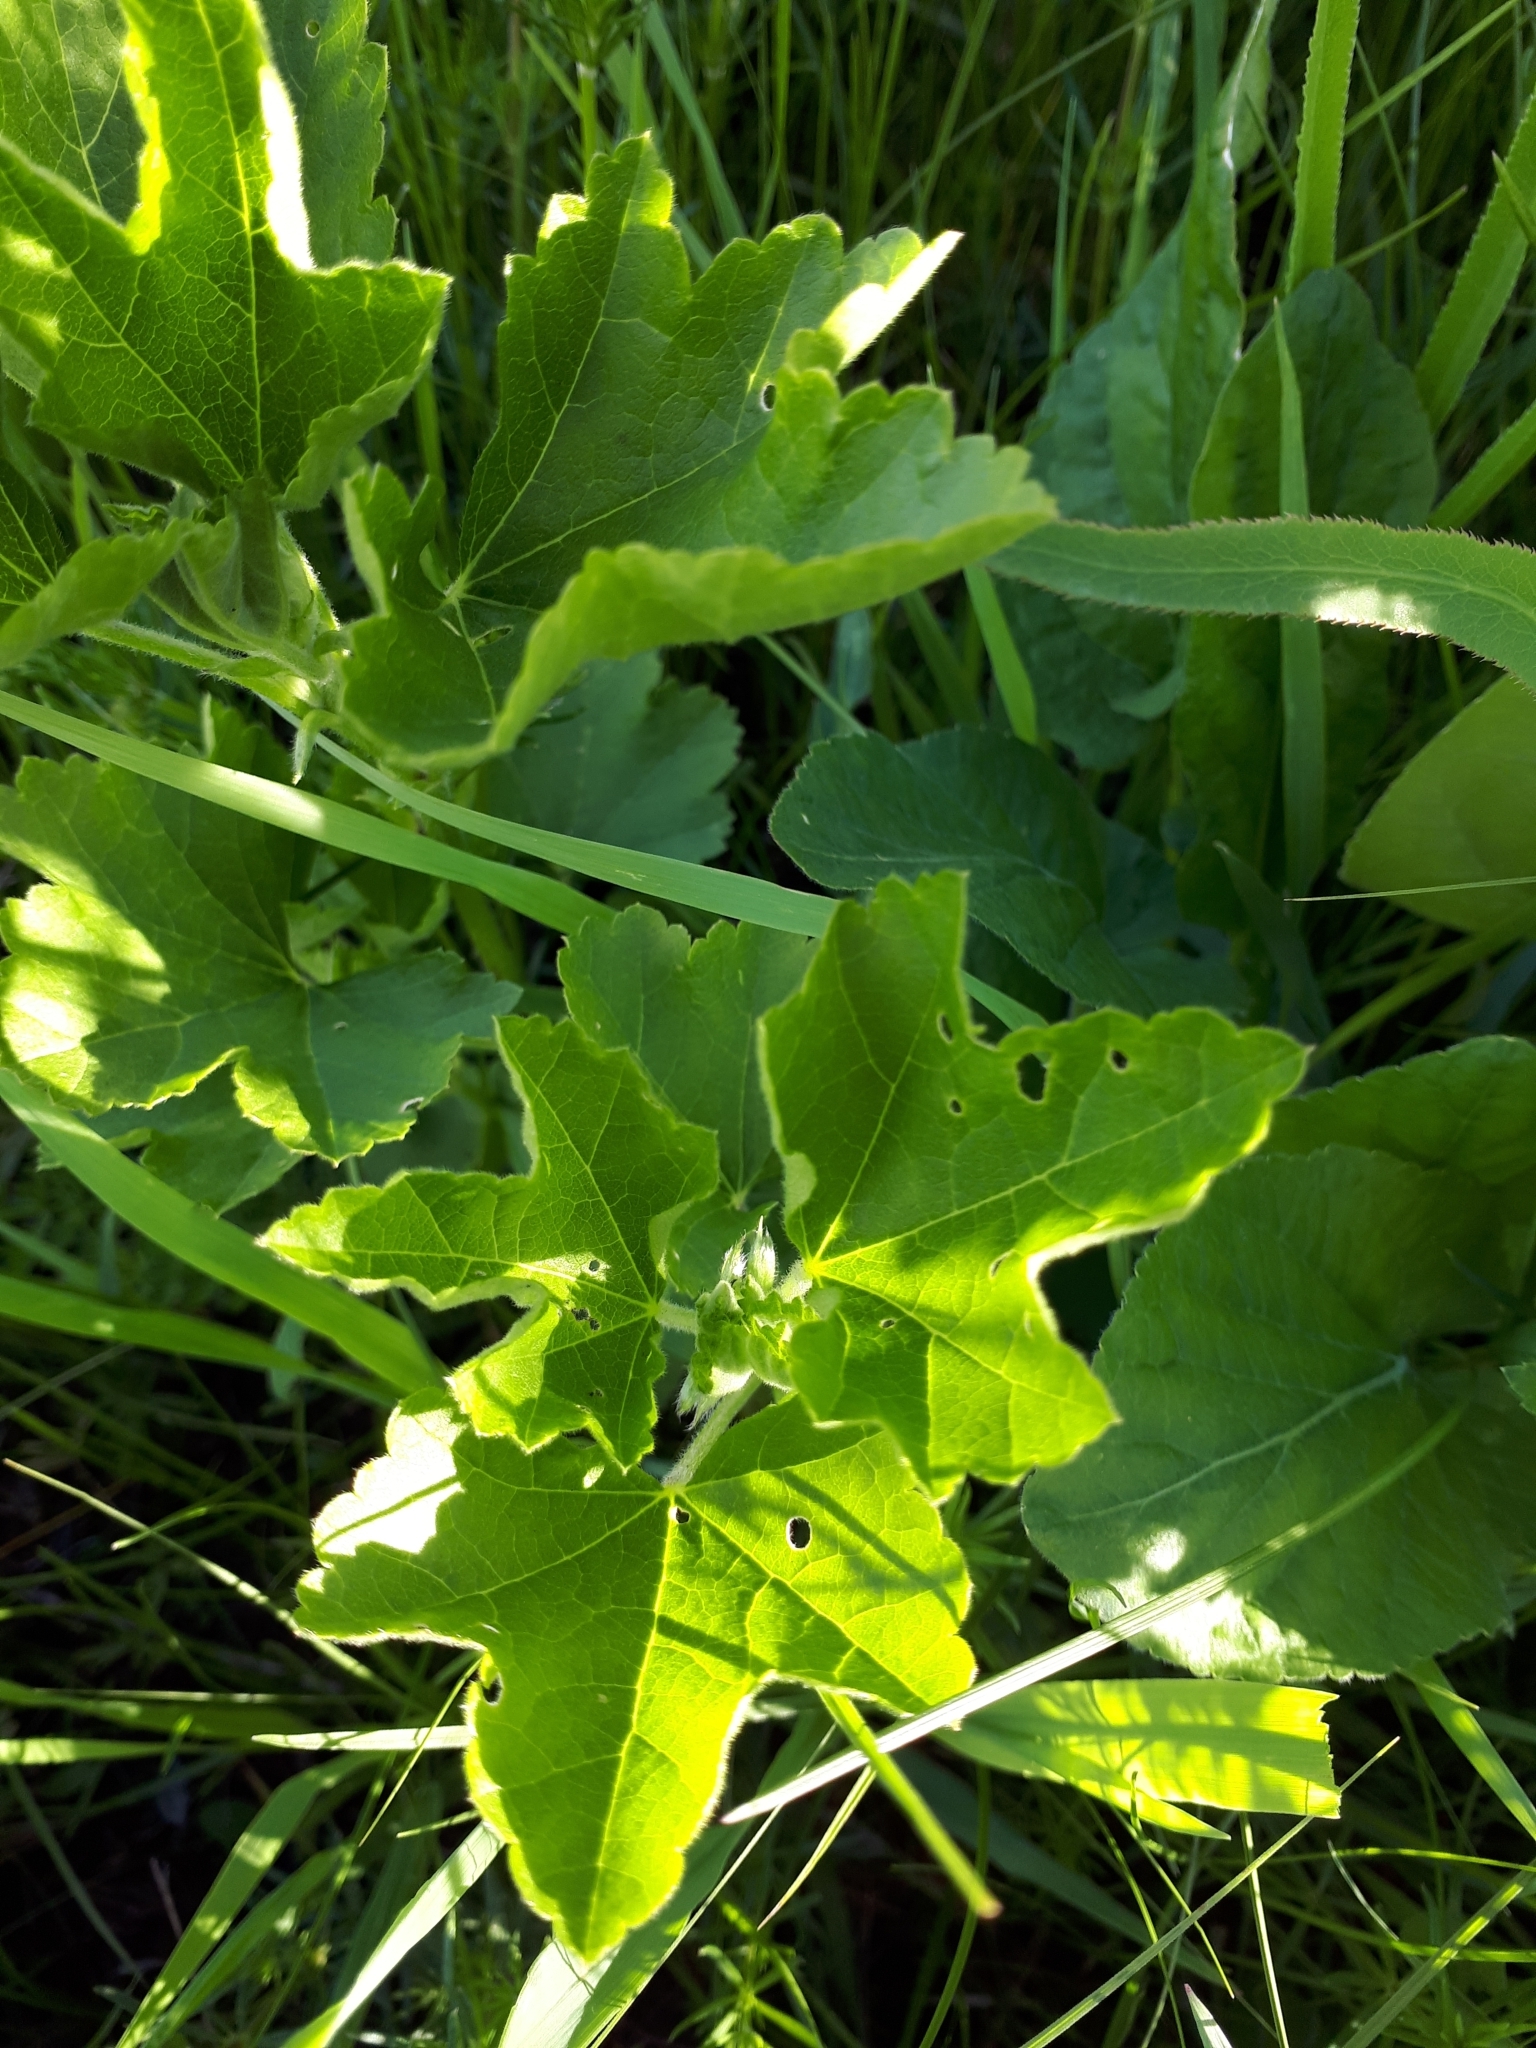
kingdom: Plantae
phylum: Tracheophyta
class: Magnoliopsida
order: Malvales
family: Malvaceae
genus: Malva
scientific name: Malva thuringiaca
